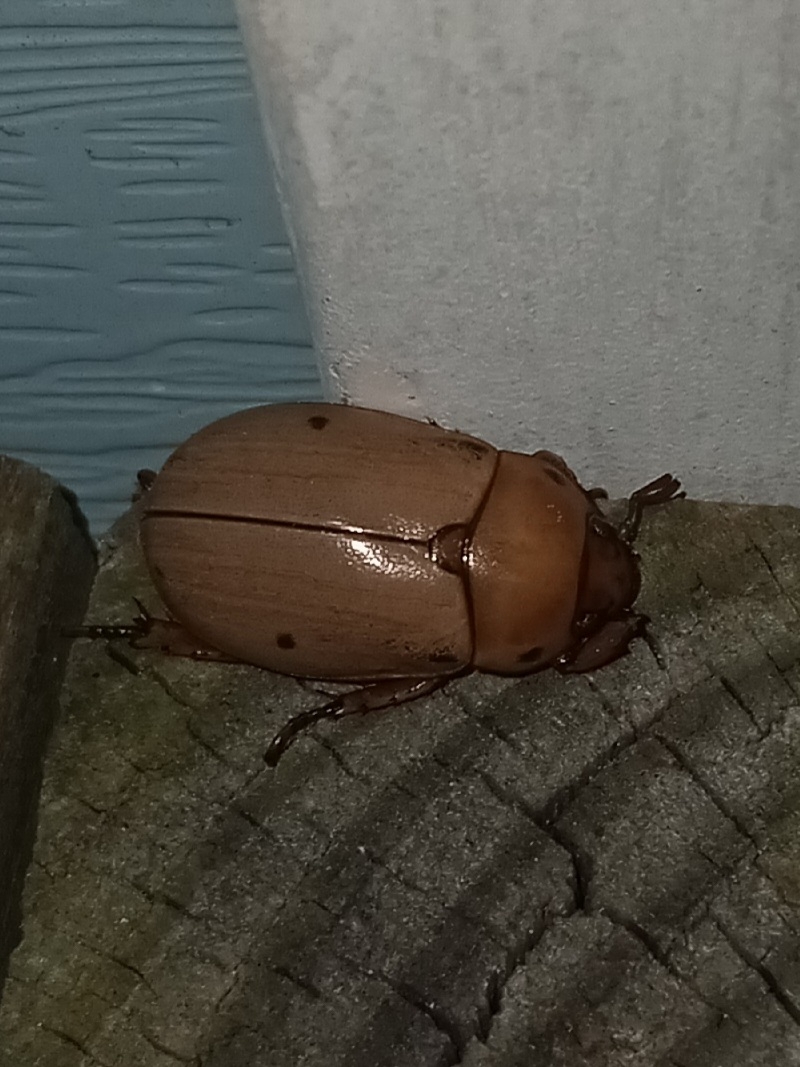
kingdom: Animalia
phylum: Arthropoda
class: Insecta
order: Coleoptera
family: Scarabaeidae
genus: Pelidnota
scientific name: Pelidnota punctata
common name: Grapevine beetle
